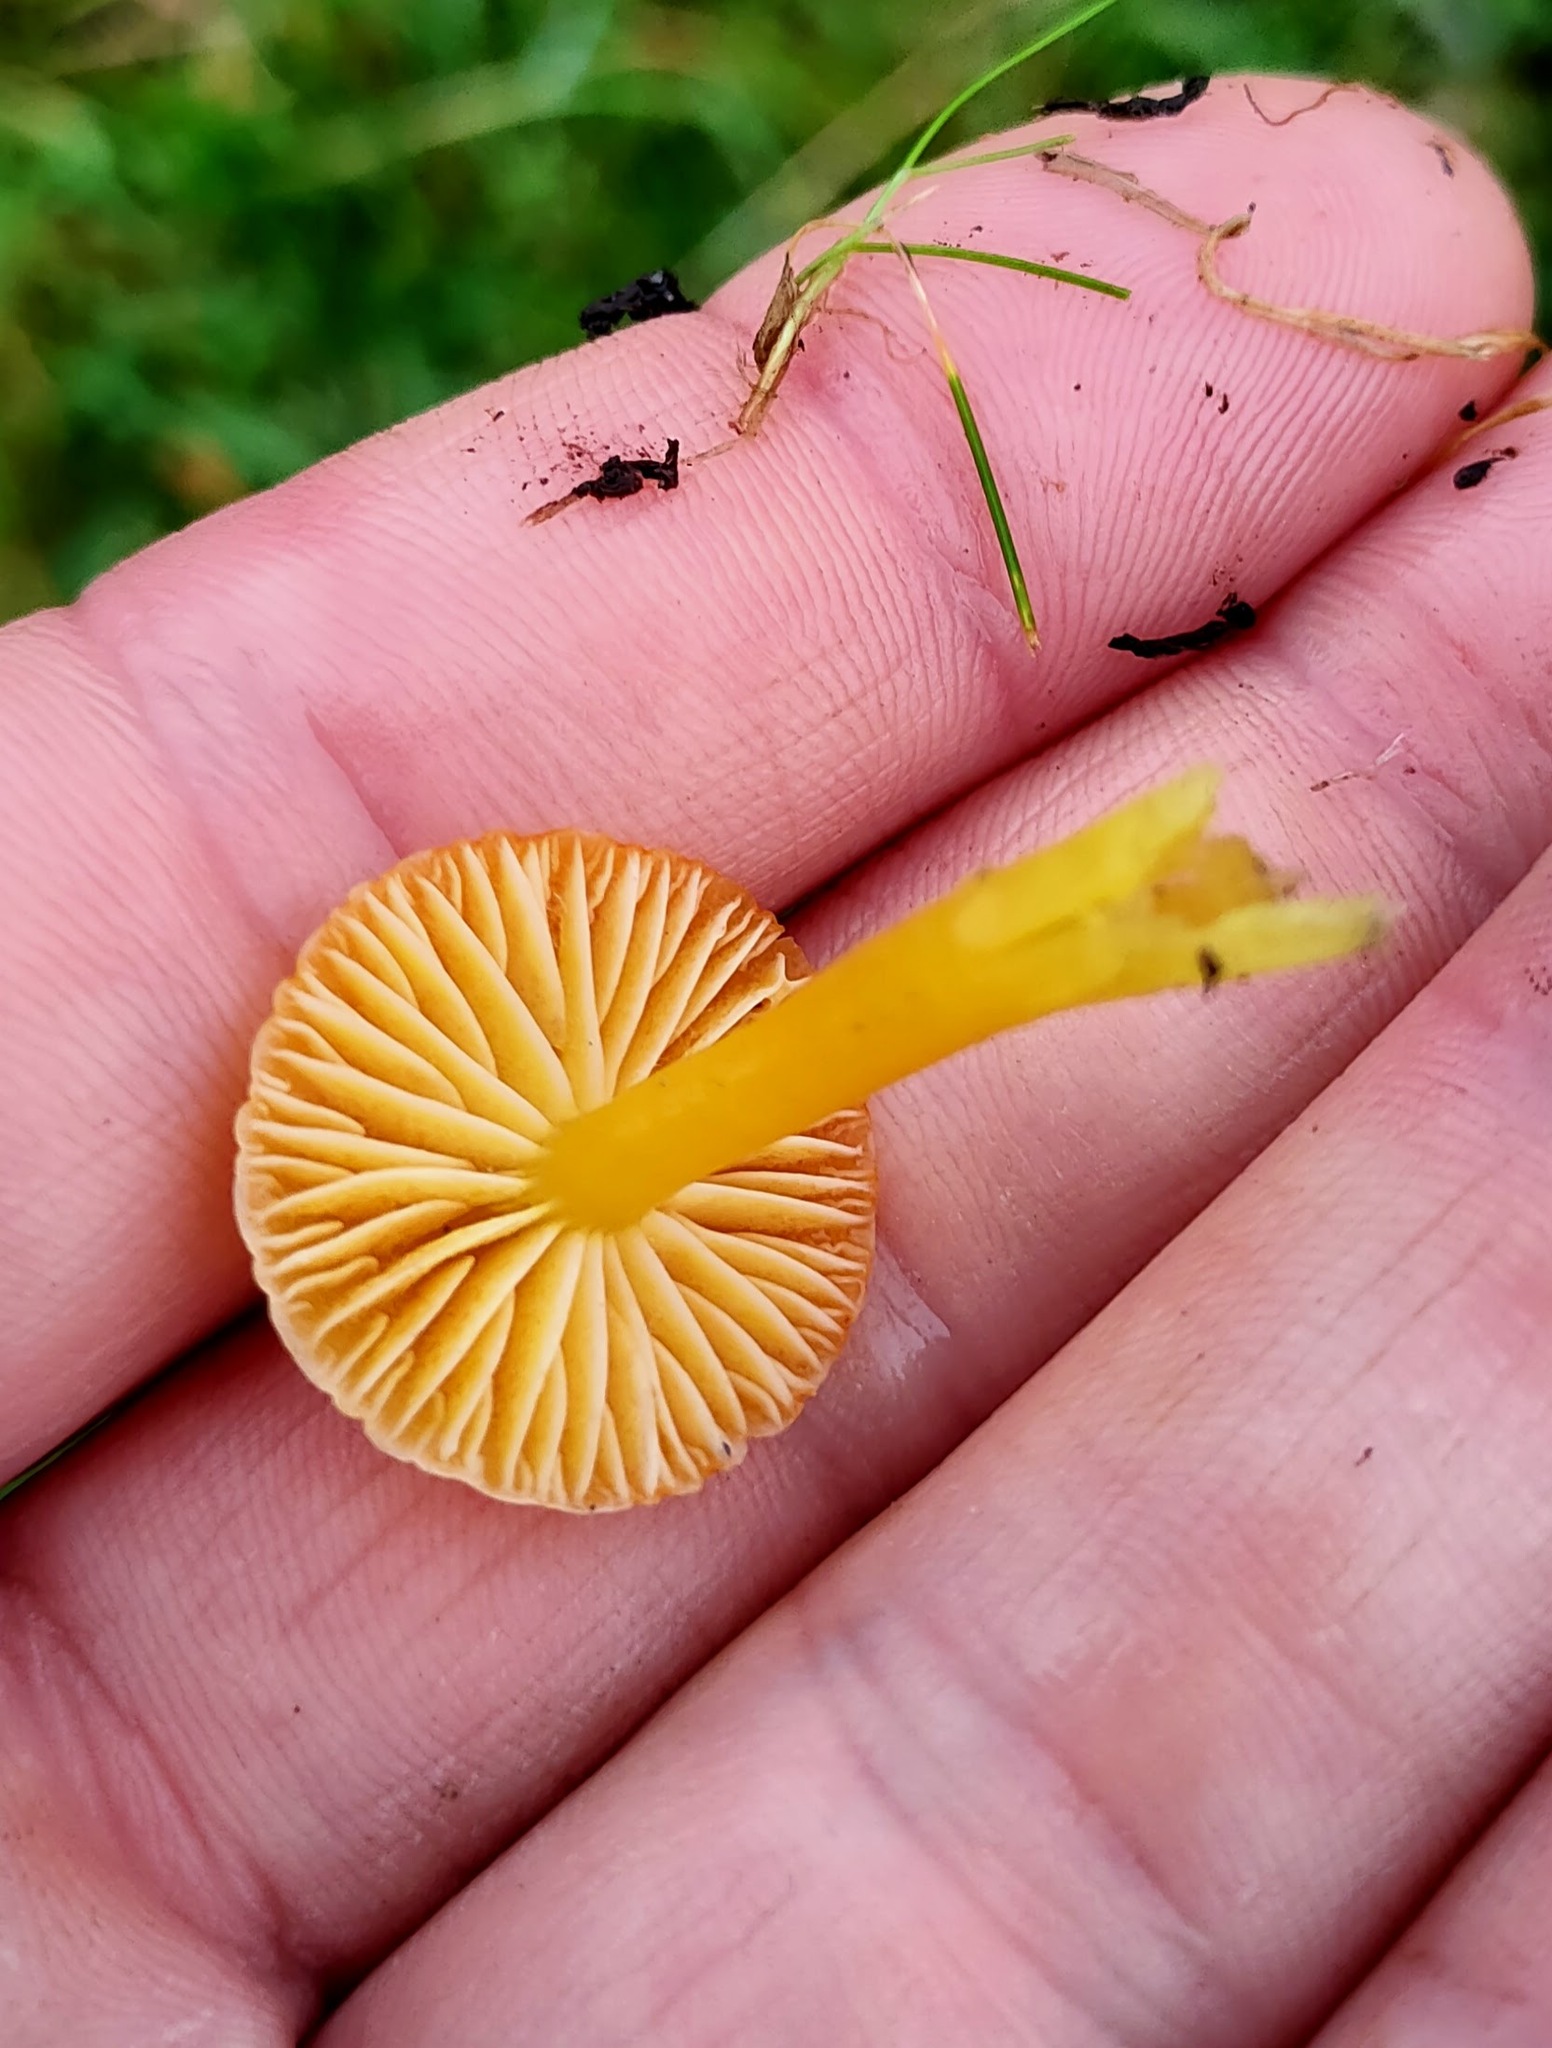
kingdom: Fungi
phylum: Basidiomycota
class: Agaricomycetes
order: Agaricales
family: Hygrophoraceae
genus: Hygrocybe
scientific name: Hygrocybe insipida
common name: Spangle waxcap
